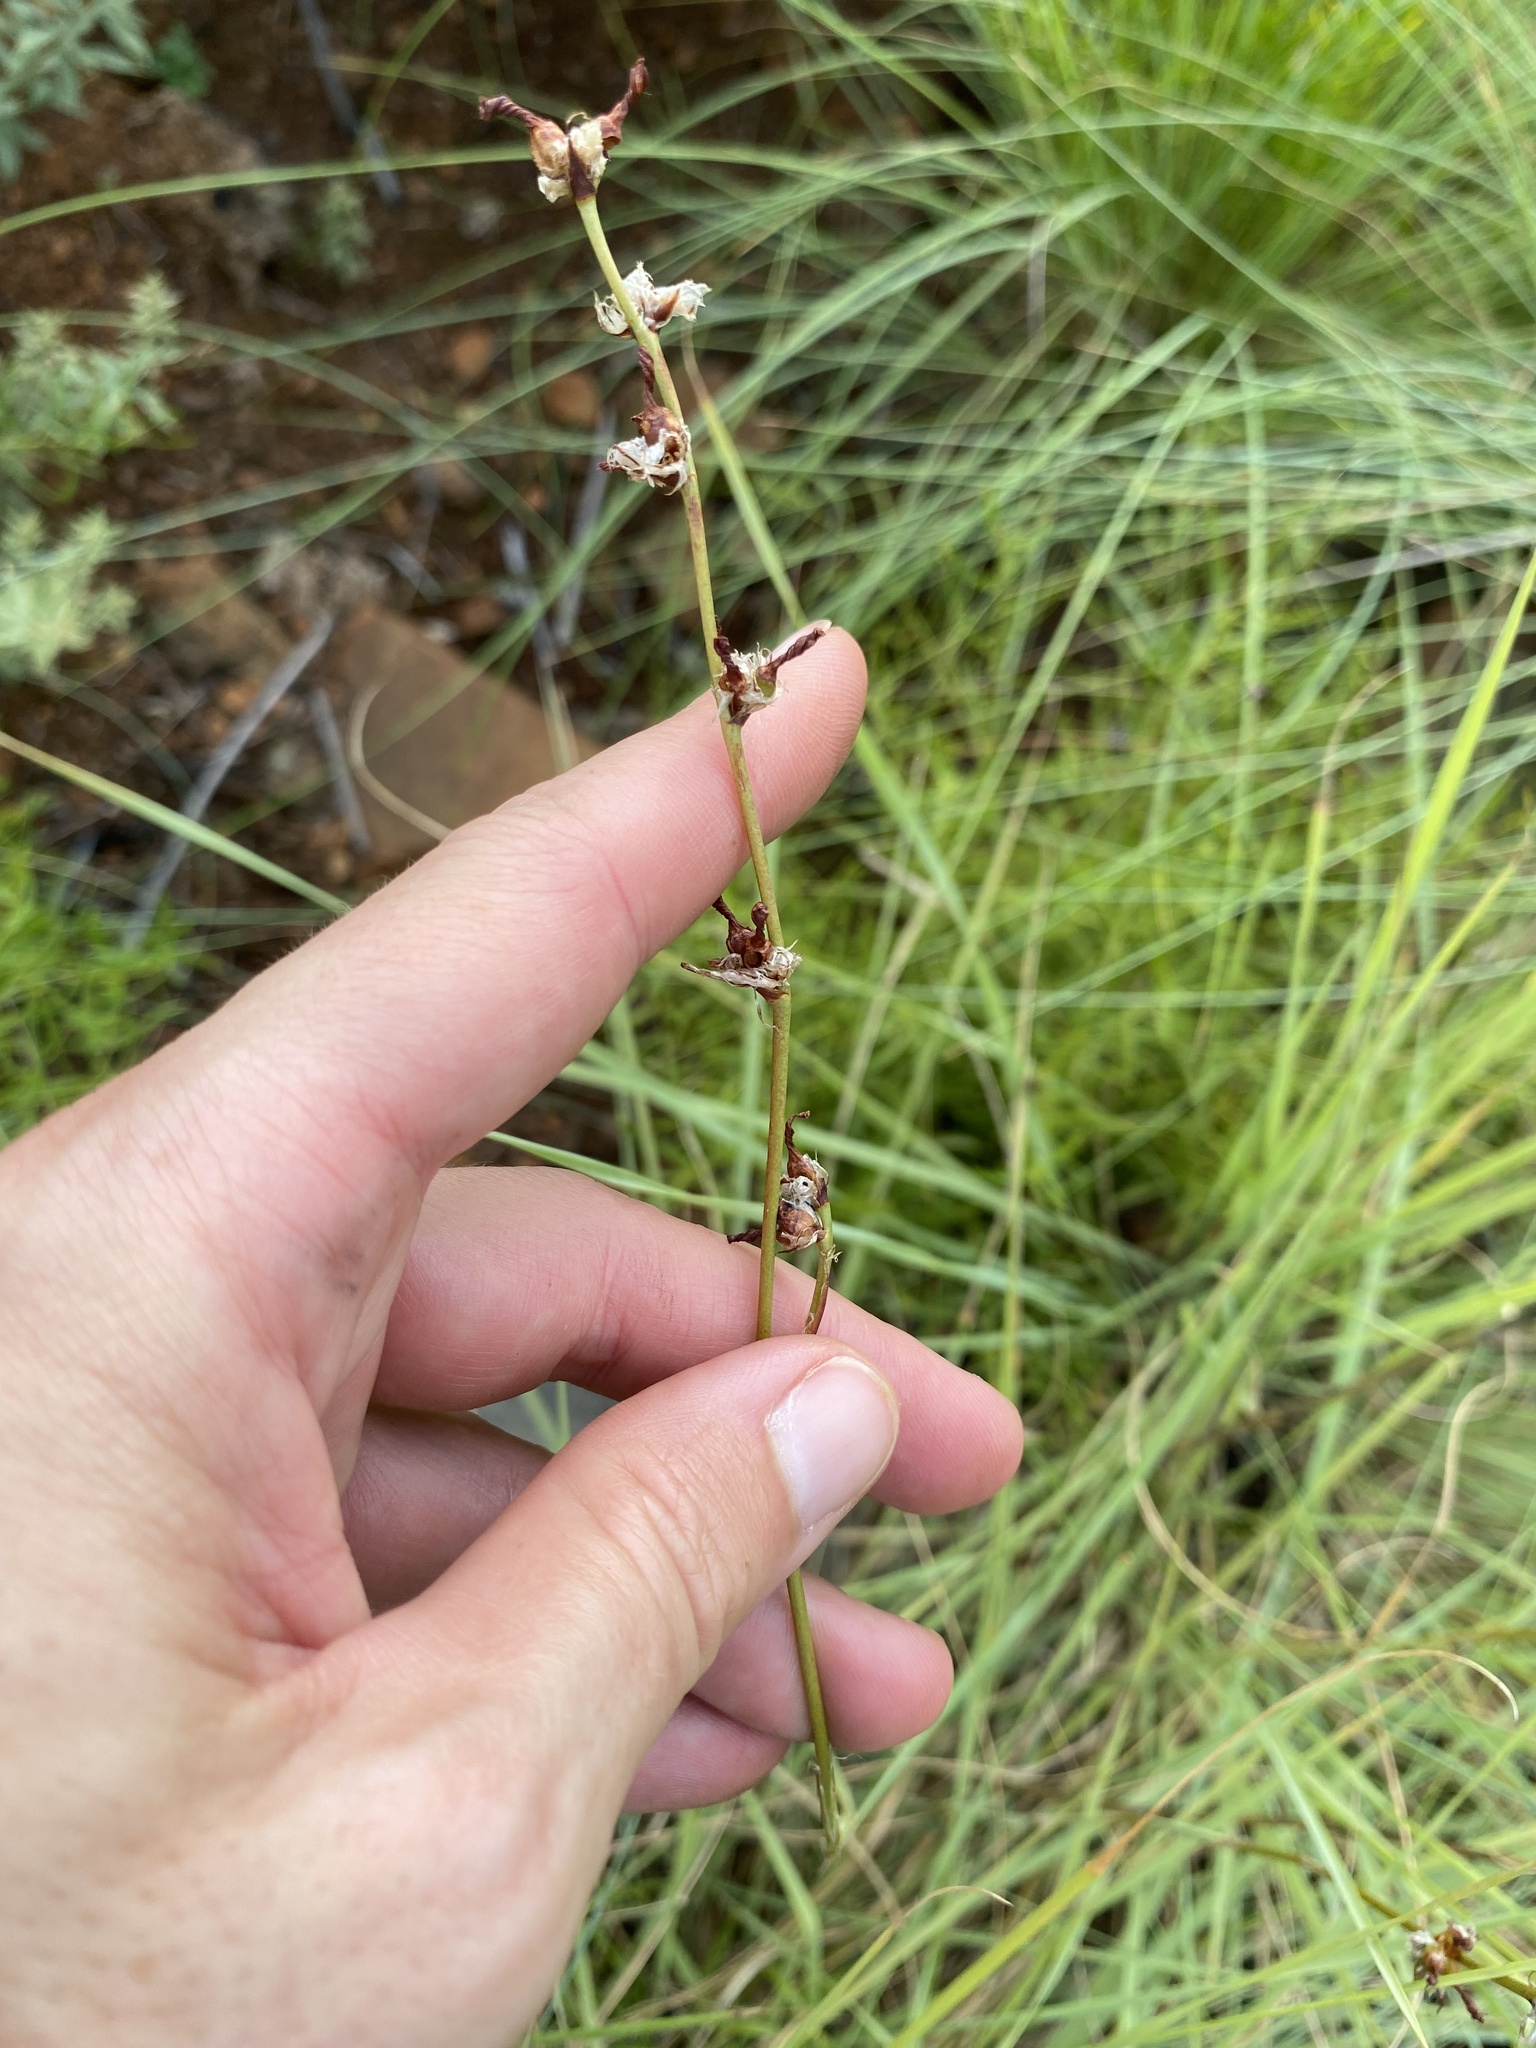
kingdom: Plantae
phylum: Tracheophyta
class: Liliopsida
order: Asparagales
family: Iridaceae
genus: Aristea
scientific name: Aristea torulosa
